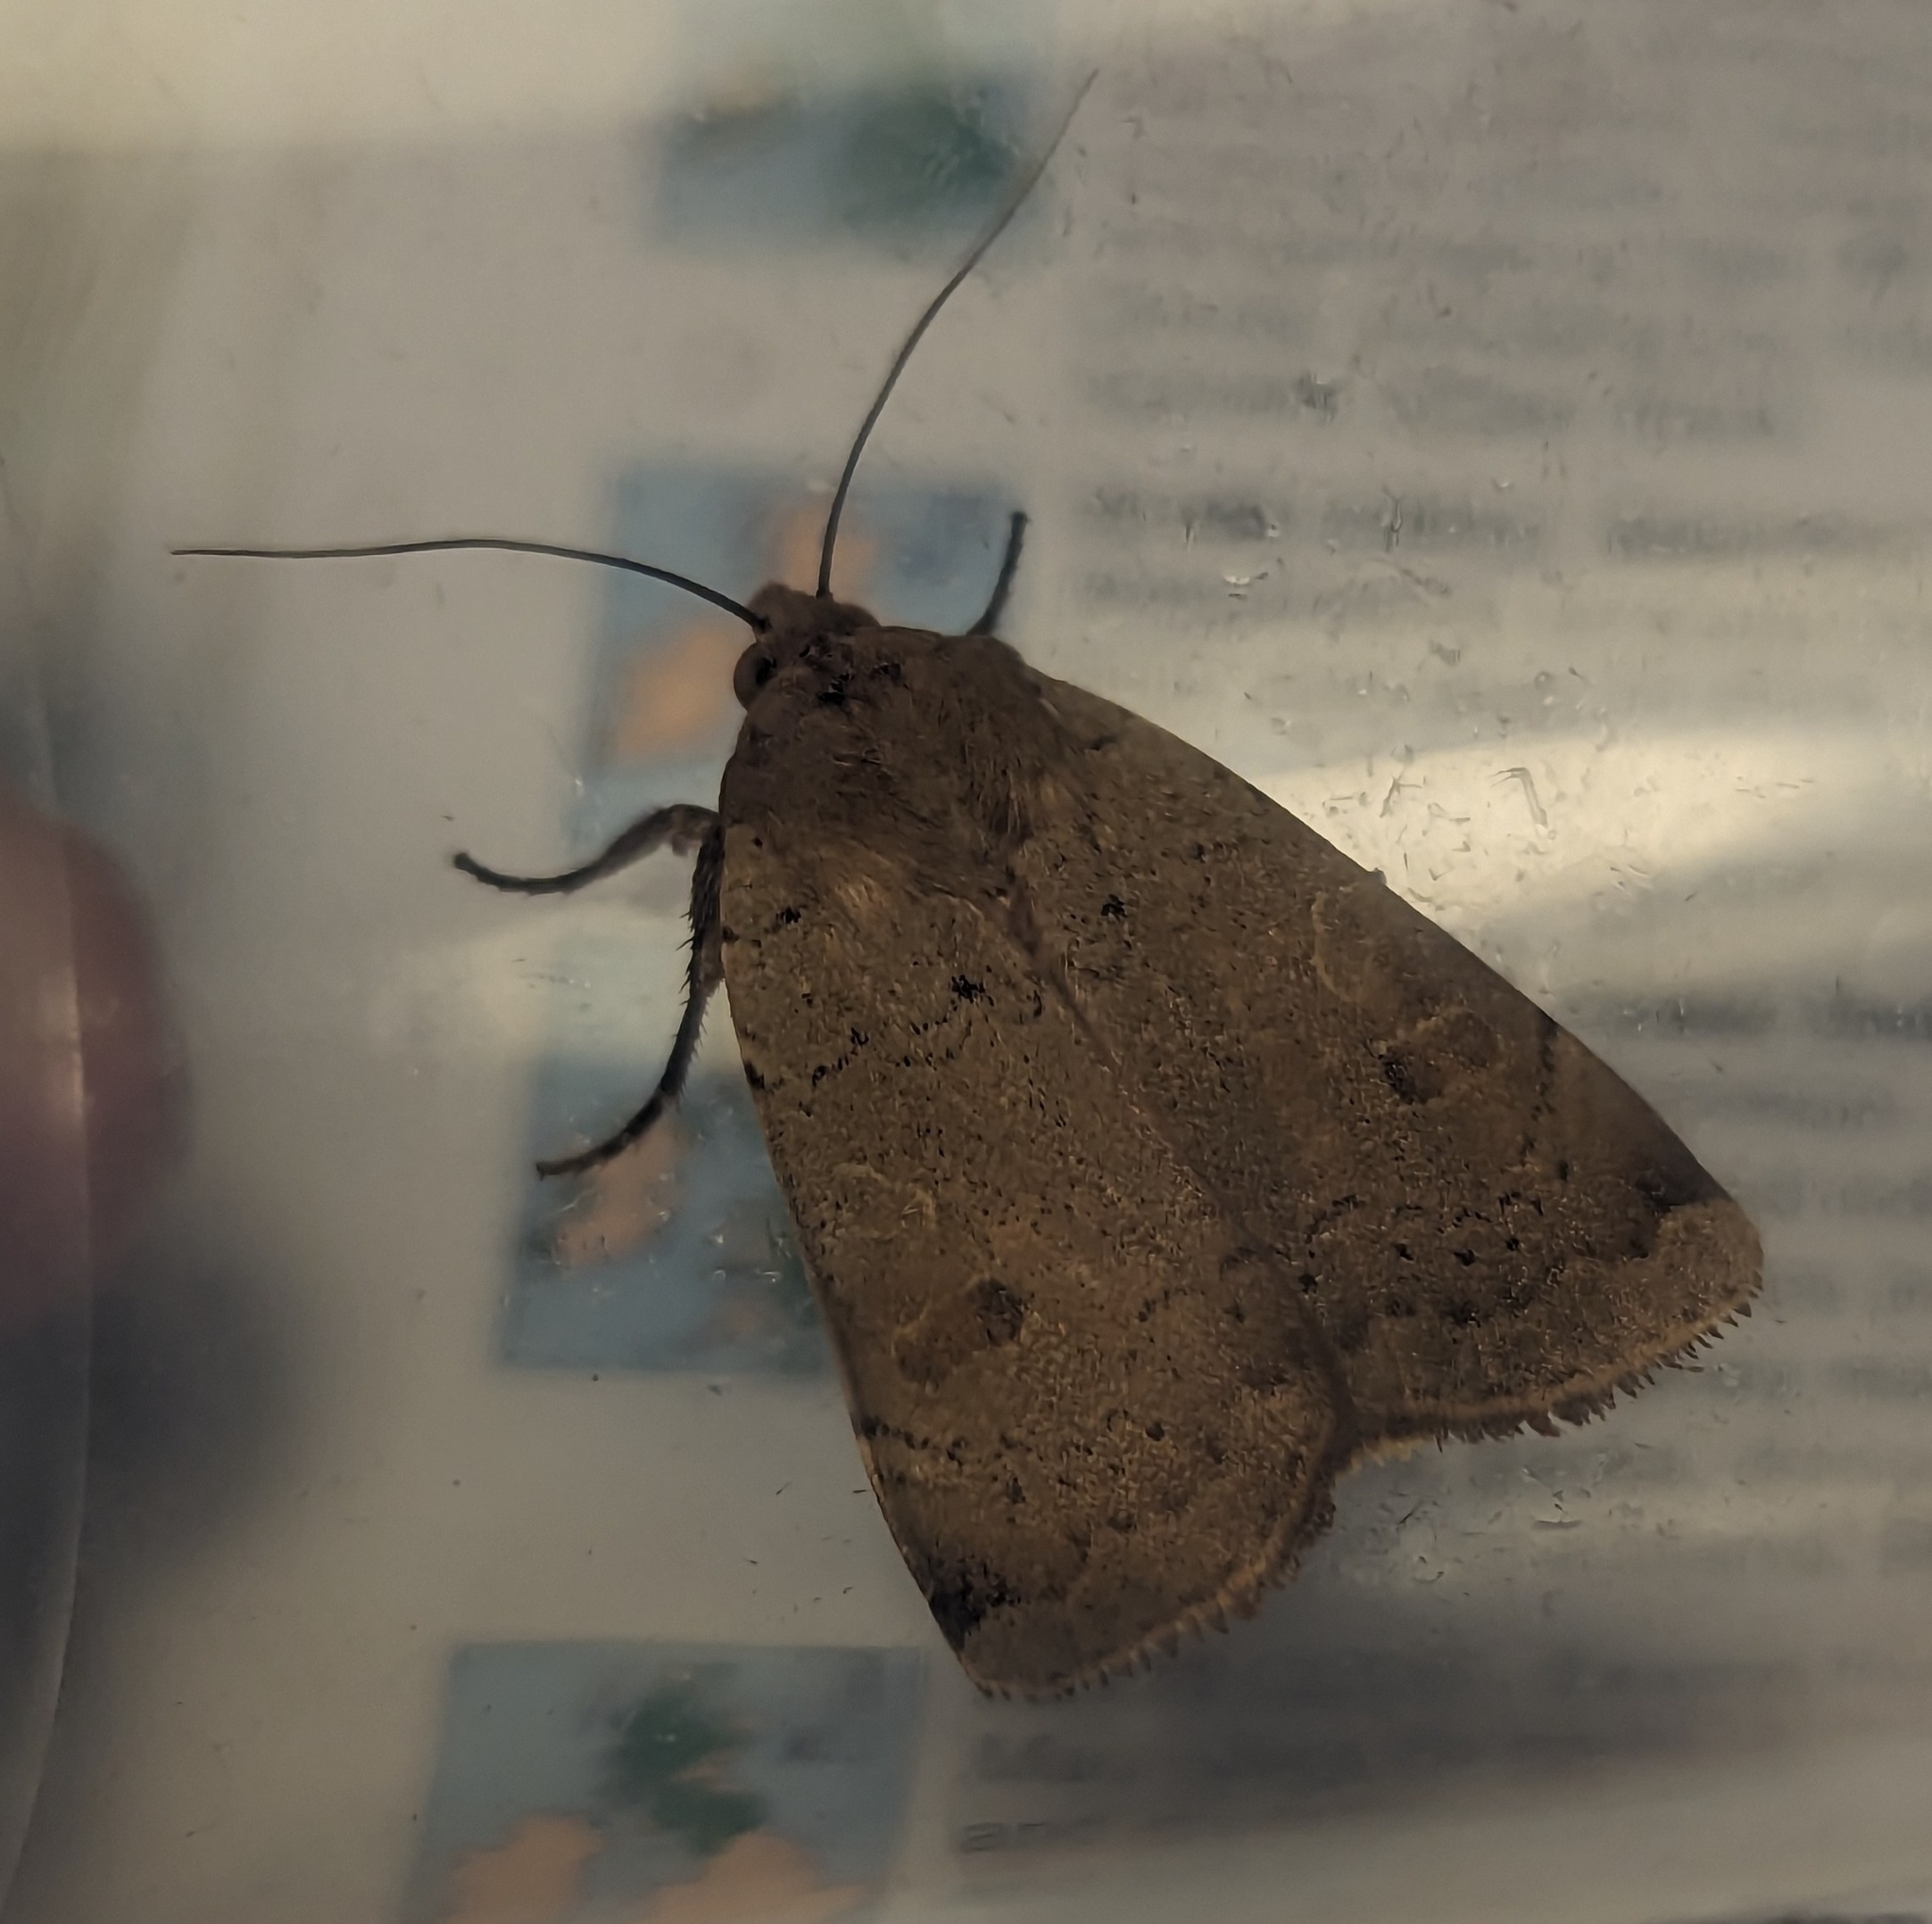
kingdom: Animalia
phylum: Arthropoda
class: Insecta
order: Lepidoptera
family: Noctuidae
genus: Noctua
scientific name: Noctua comes
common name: Lesser yellow underwing
